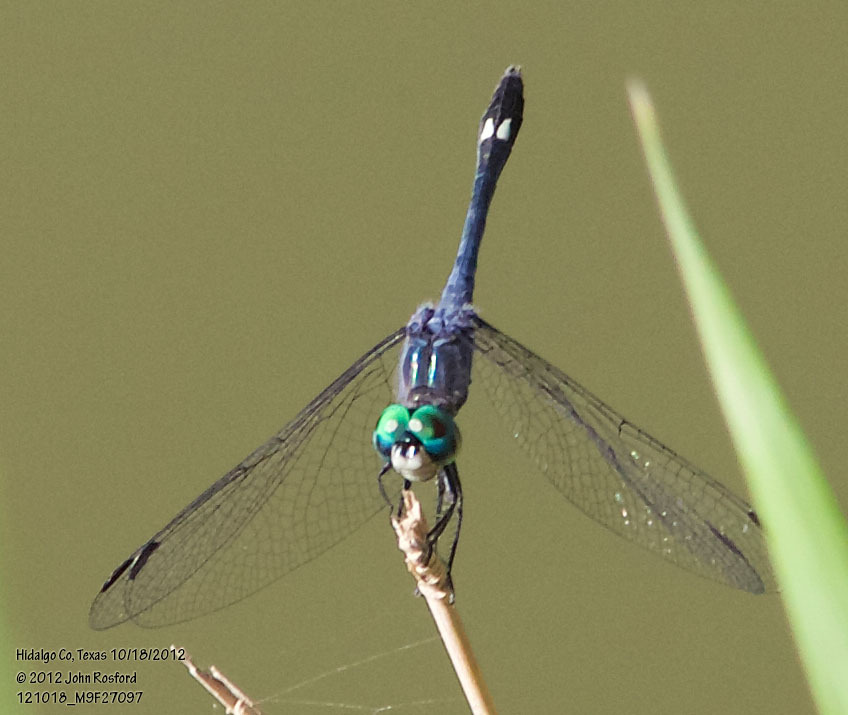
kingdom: Animalia
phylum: Arthropoda
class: Insecta
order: Odonata
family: Libellulidae
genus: Micrathyria
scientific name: Micrathyria aequalis
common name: Spot-tailed dasher
